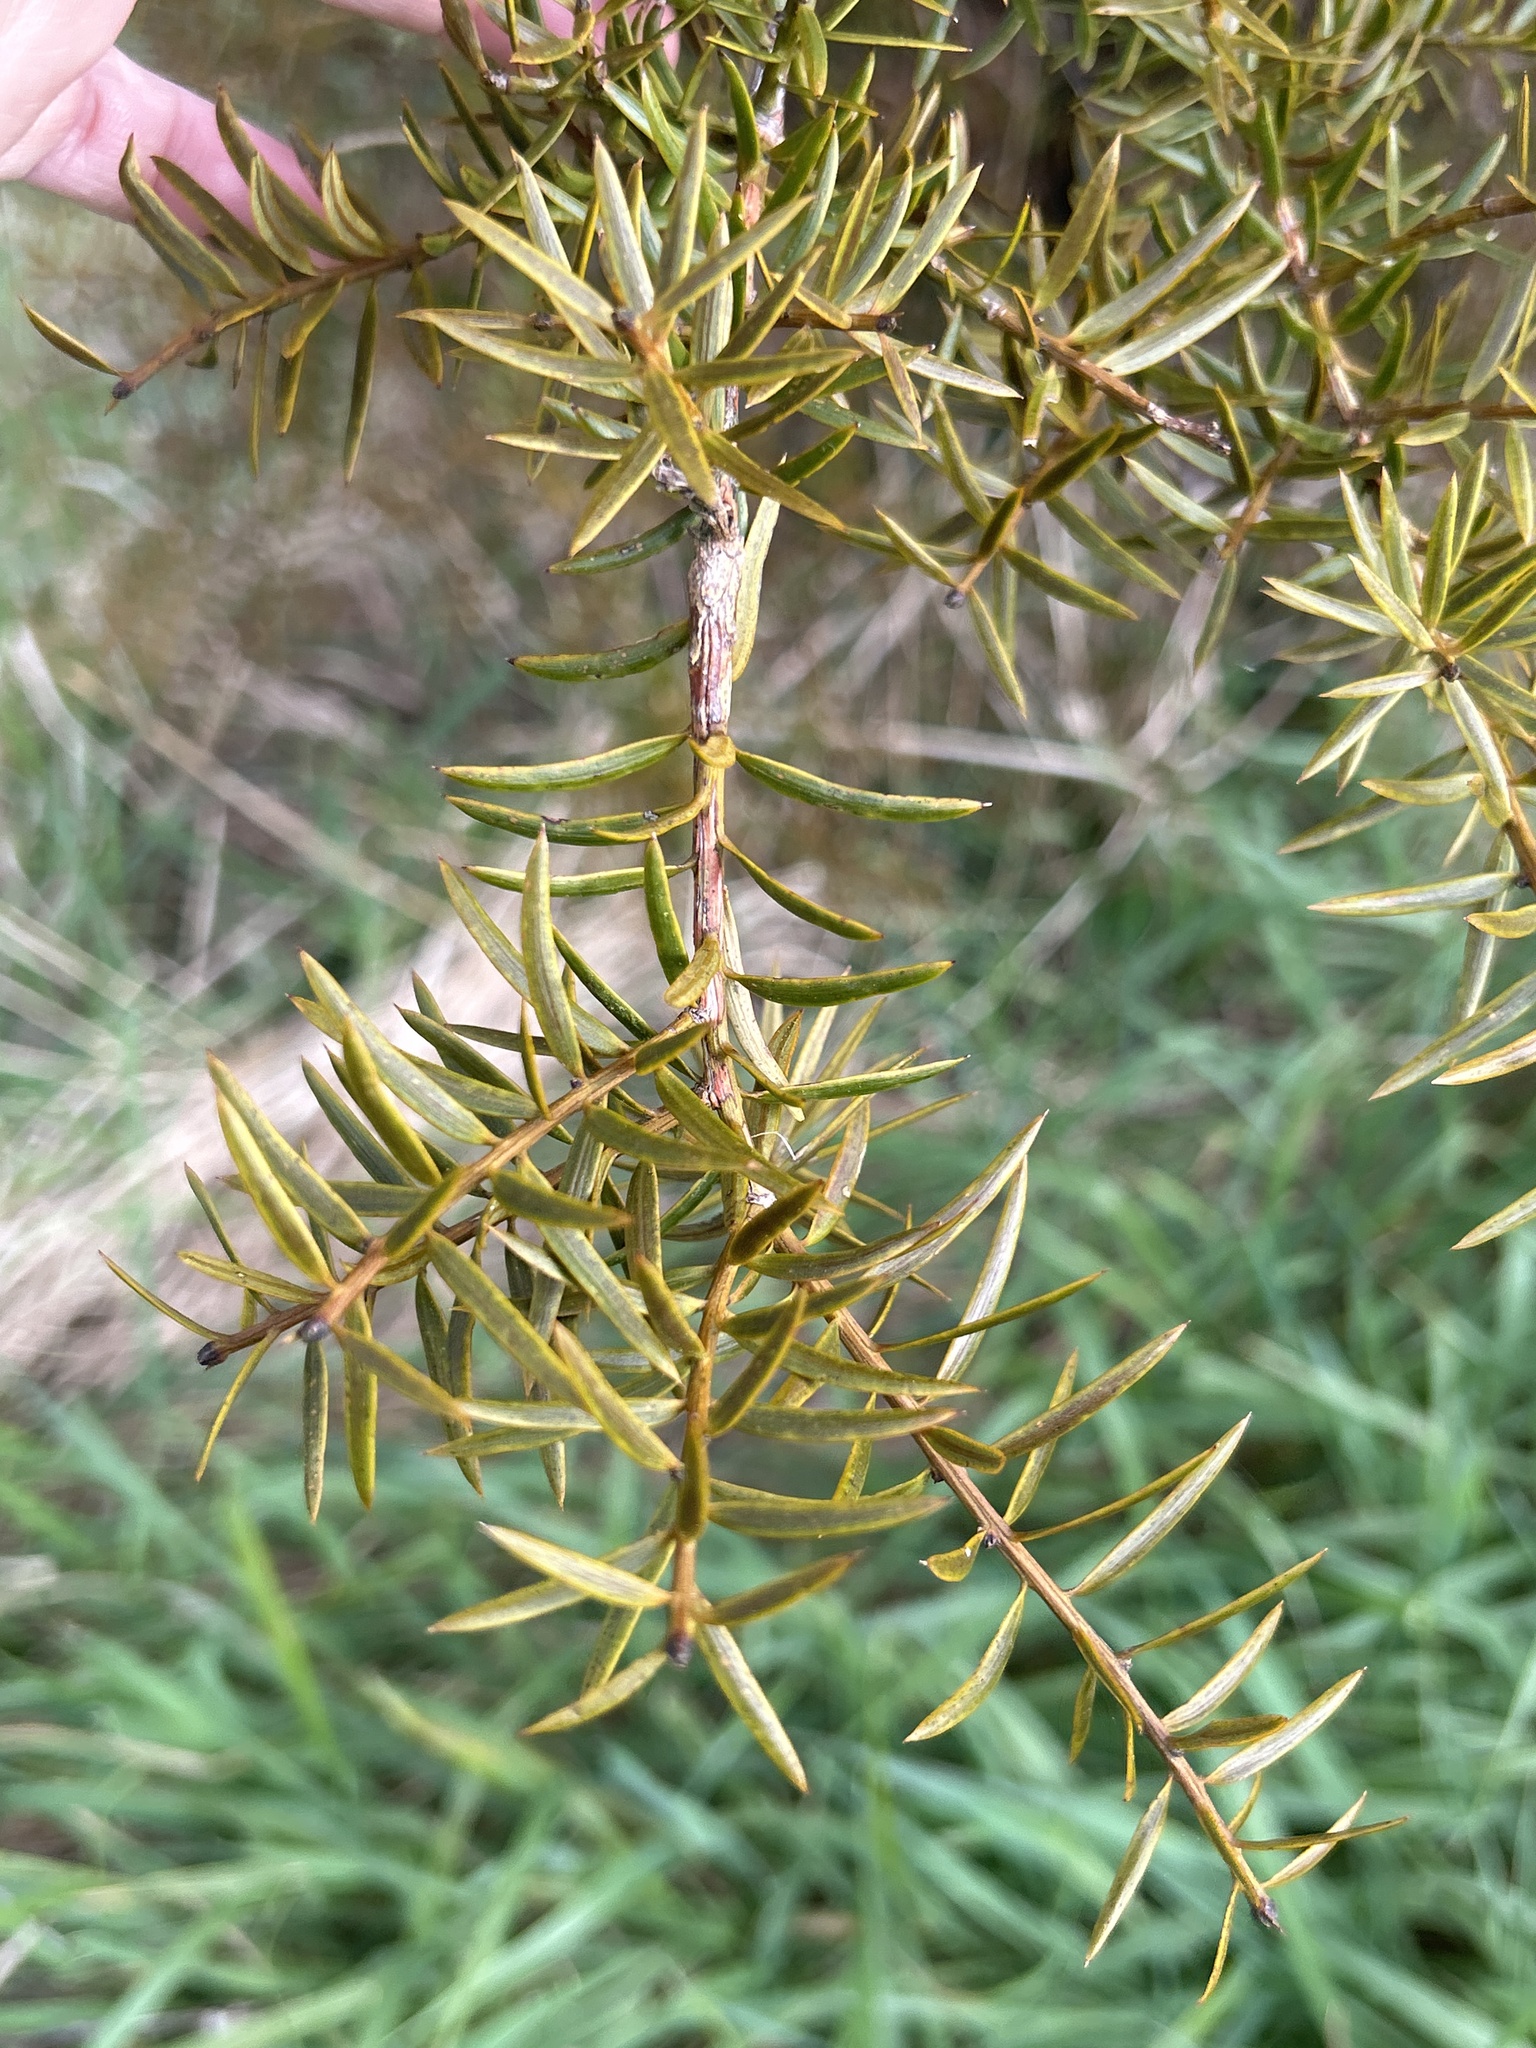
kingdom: Plantae
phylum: Tracheophyta
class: Pinopsida
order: Pinales
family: Podocarpaceae
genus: Podocarpus
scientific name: Podocarpus totara
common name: Totara
